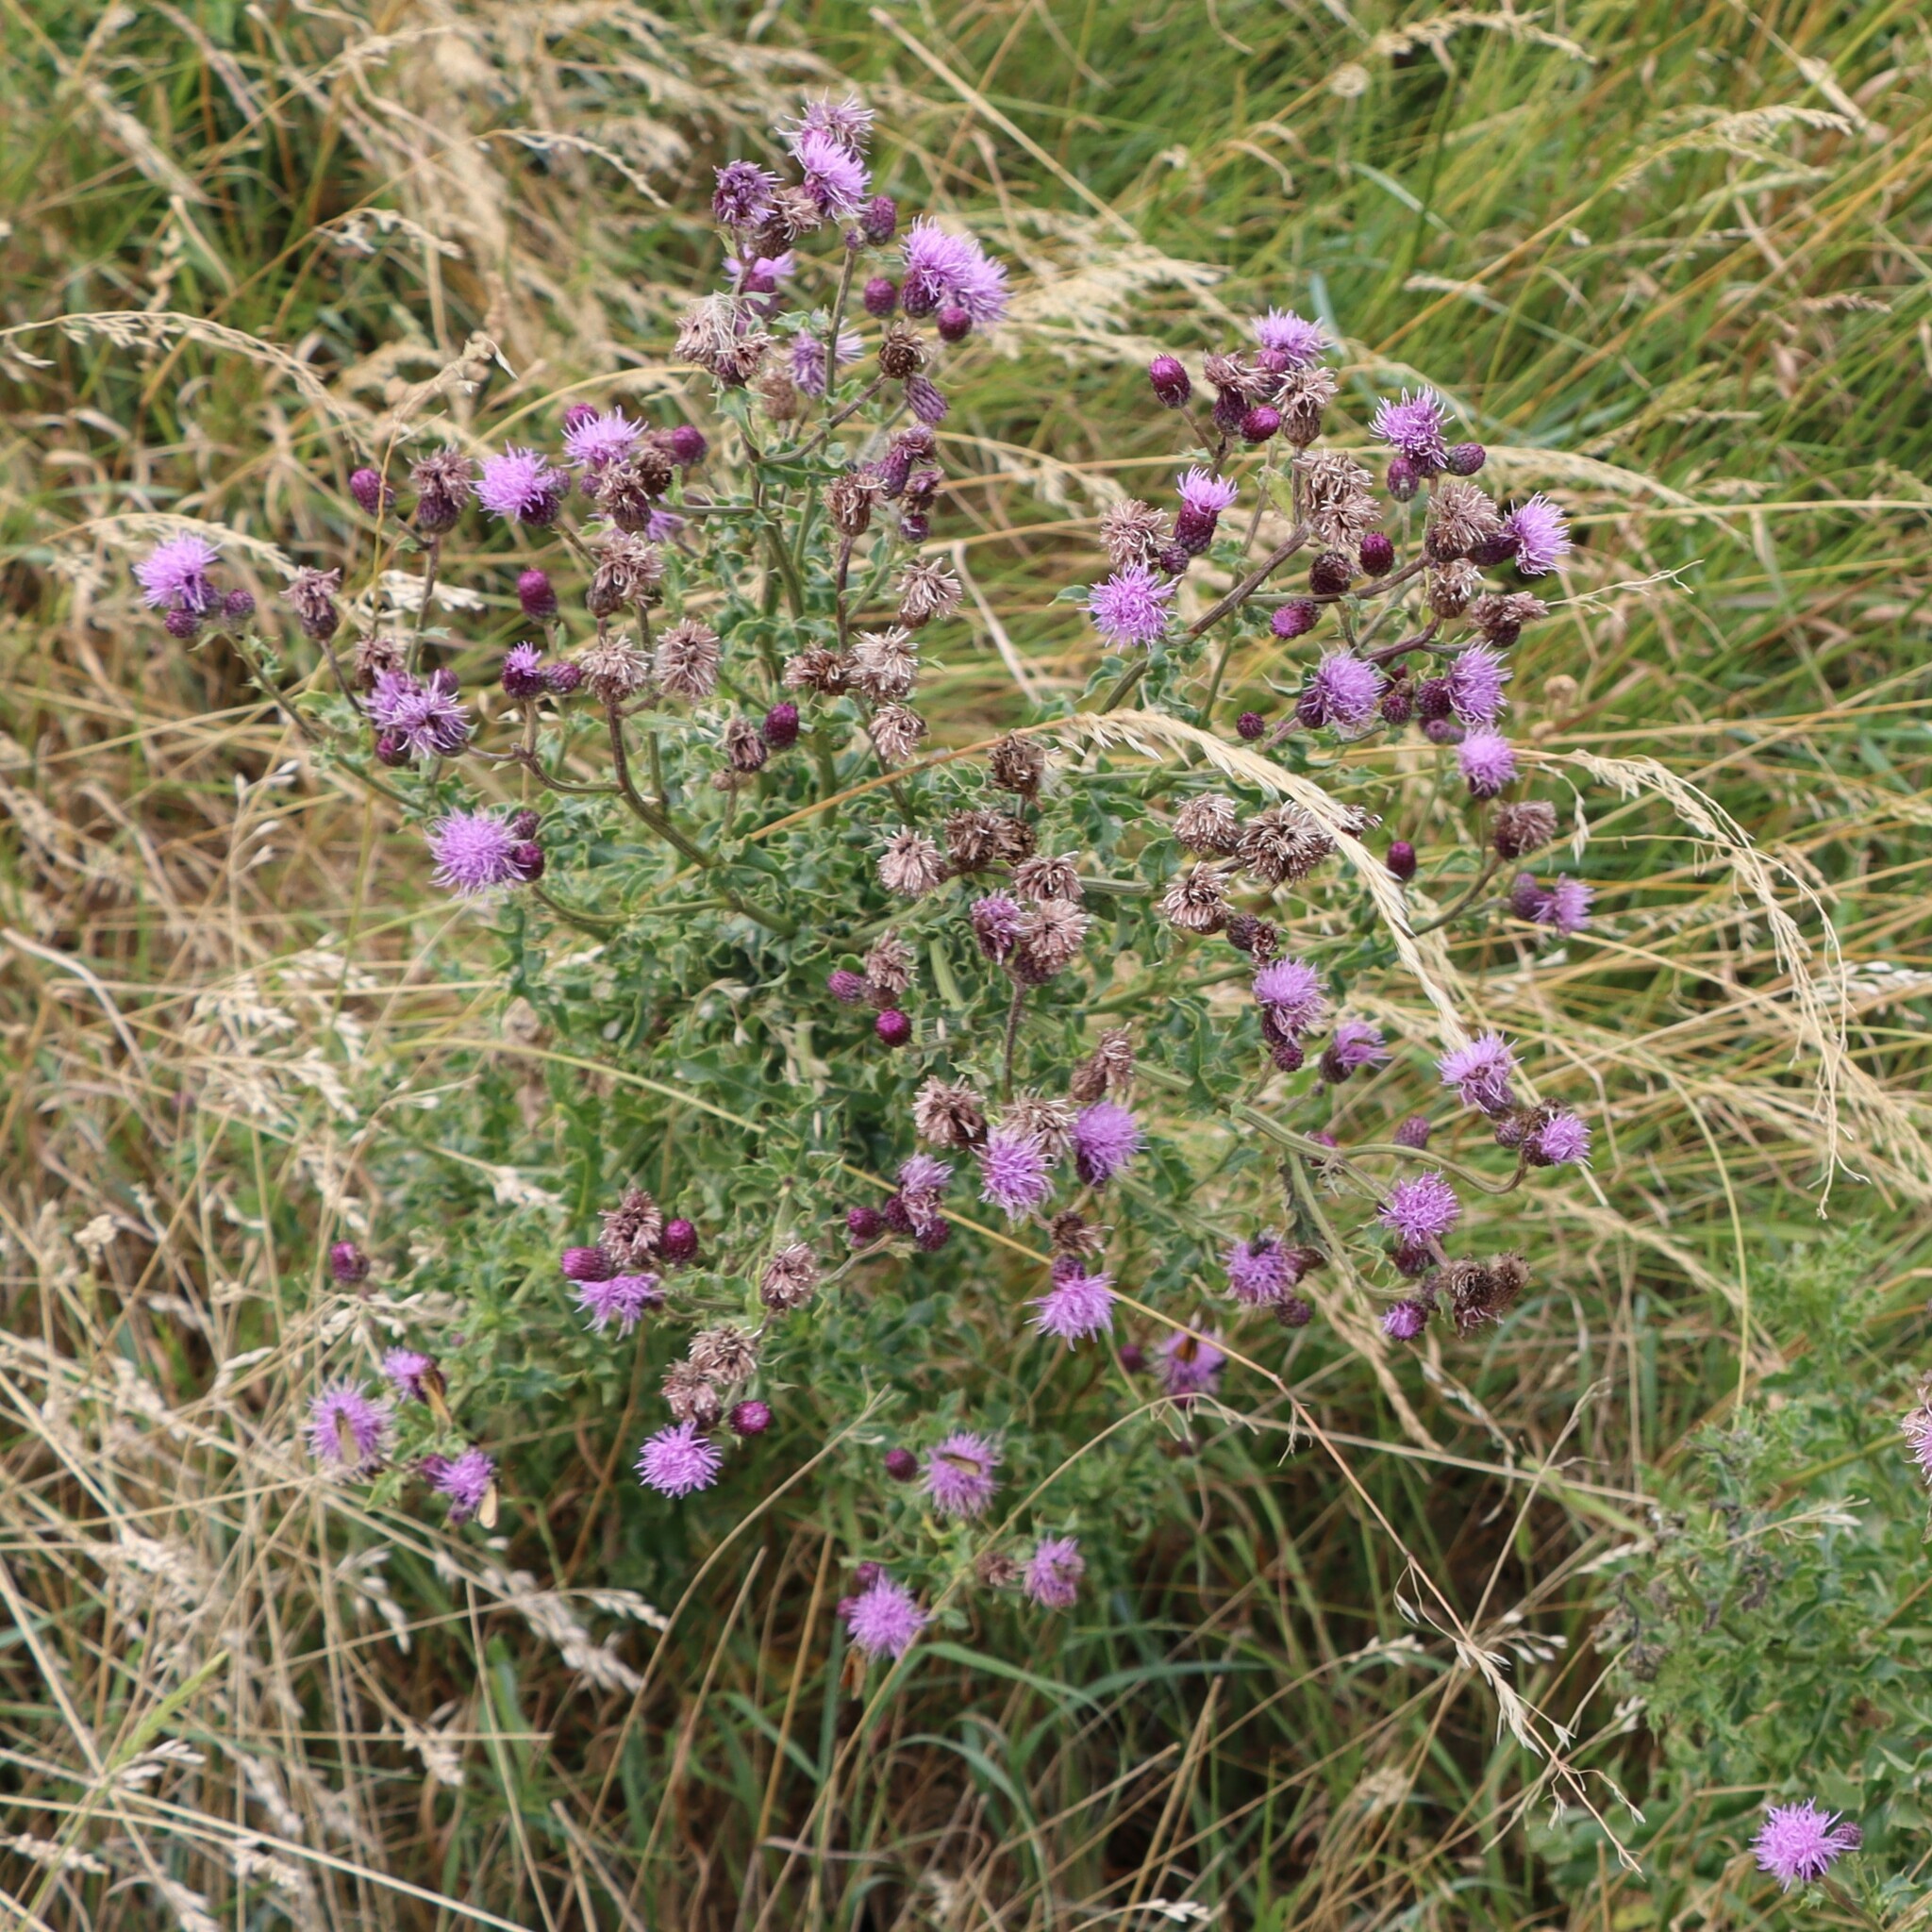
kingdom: Plantae
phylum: Tracheophyta
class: Magnoliopsida
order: Asterales
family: Asteraceae
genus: Cirsium
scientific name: Cirsium arvense
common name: Creeping thistle
